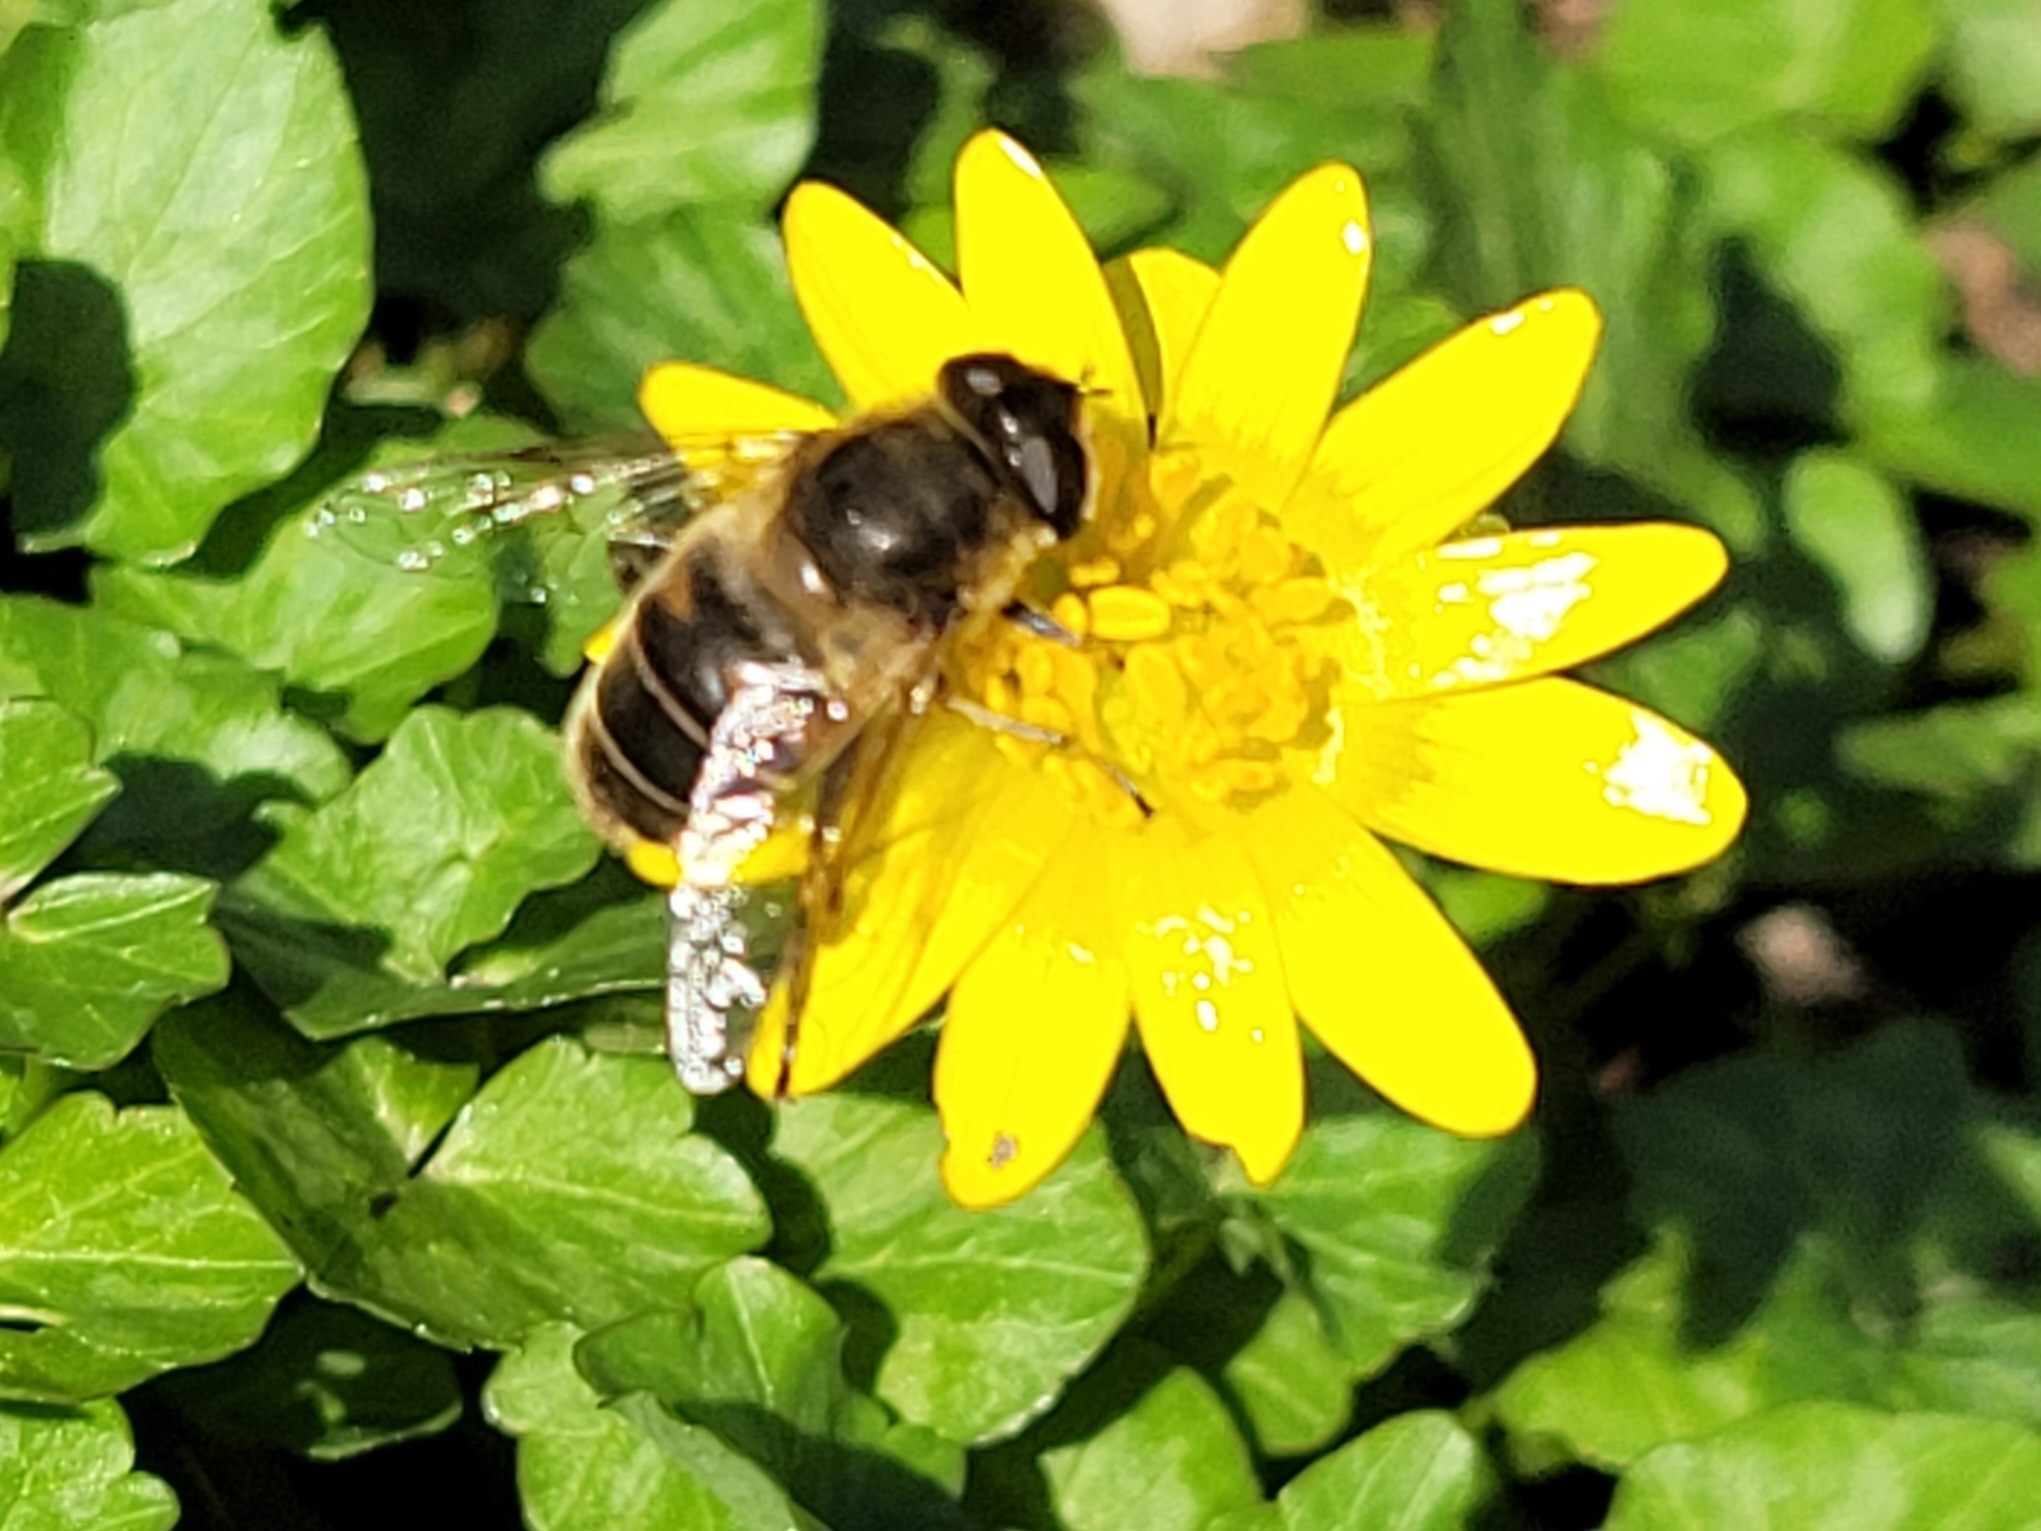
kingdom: Animalia
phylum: Arthropoda
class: Insecta
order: Diptera
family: Syrphidae
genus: Eristalis
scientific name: Eristalis tenax
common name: Drone fly
